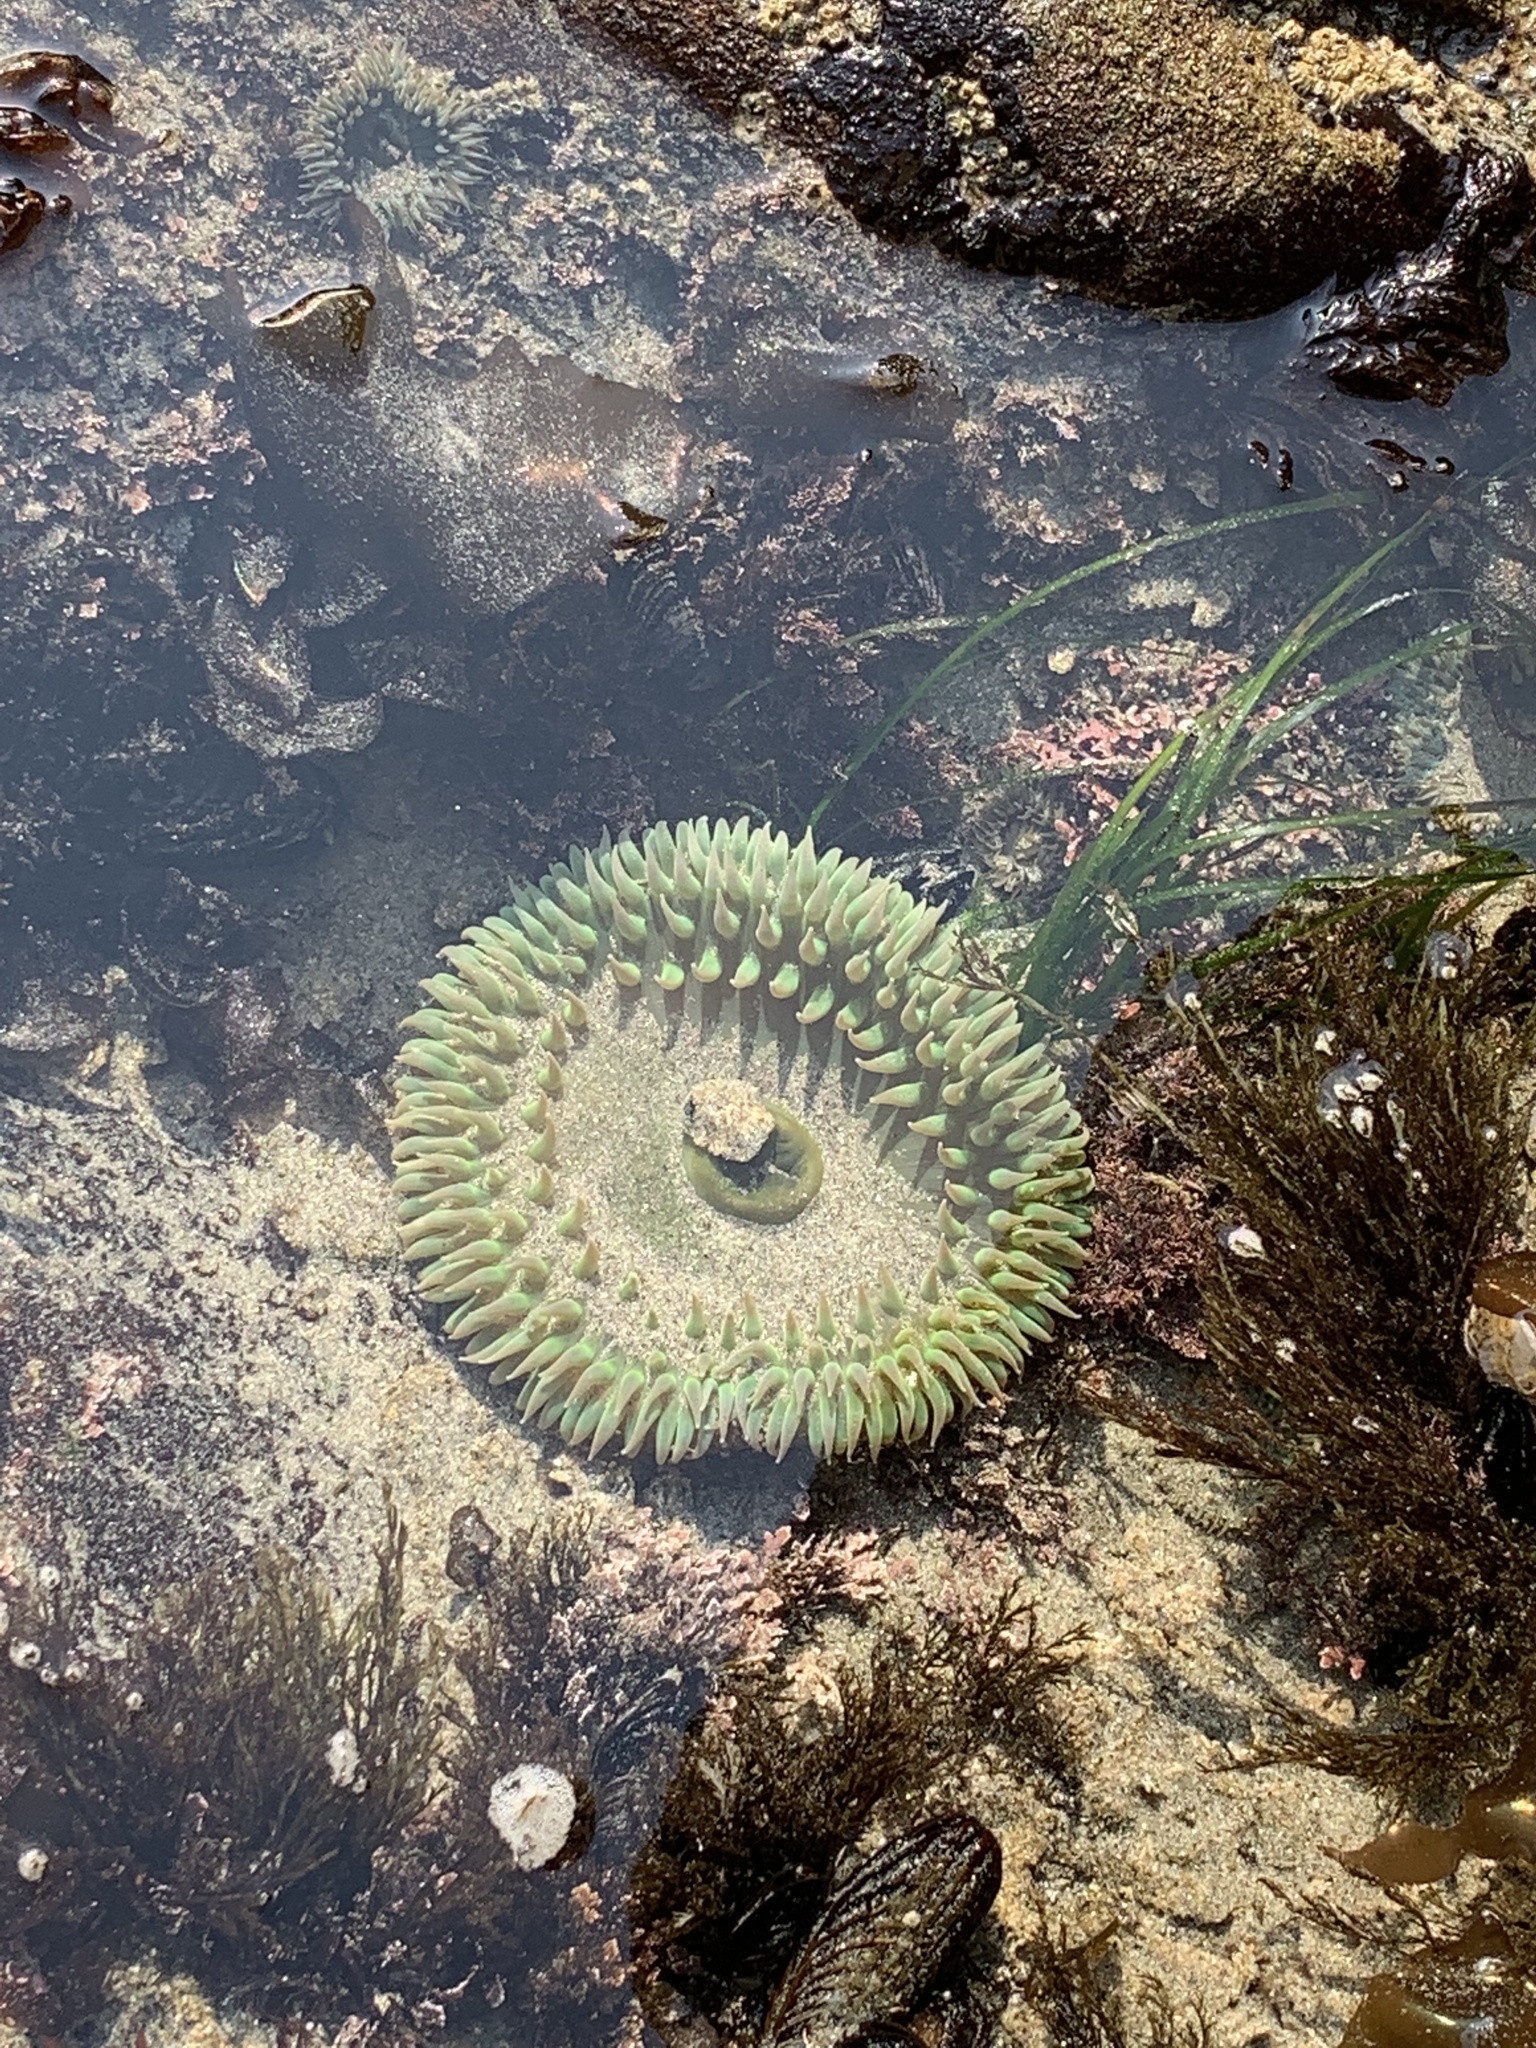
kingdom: Animalia
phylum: Cnidaria
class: Anthozoa
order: Actiniaria
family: Actiniidae
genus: Anthopleura
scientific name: Anthopleura xanthogrammica
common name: Giant green anemone
